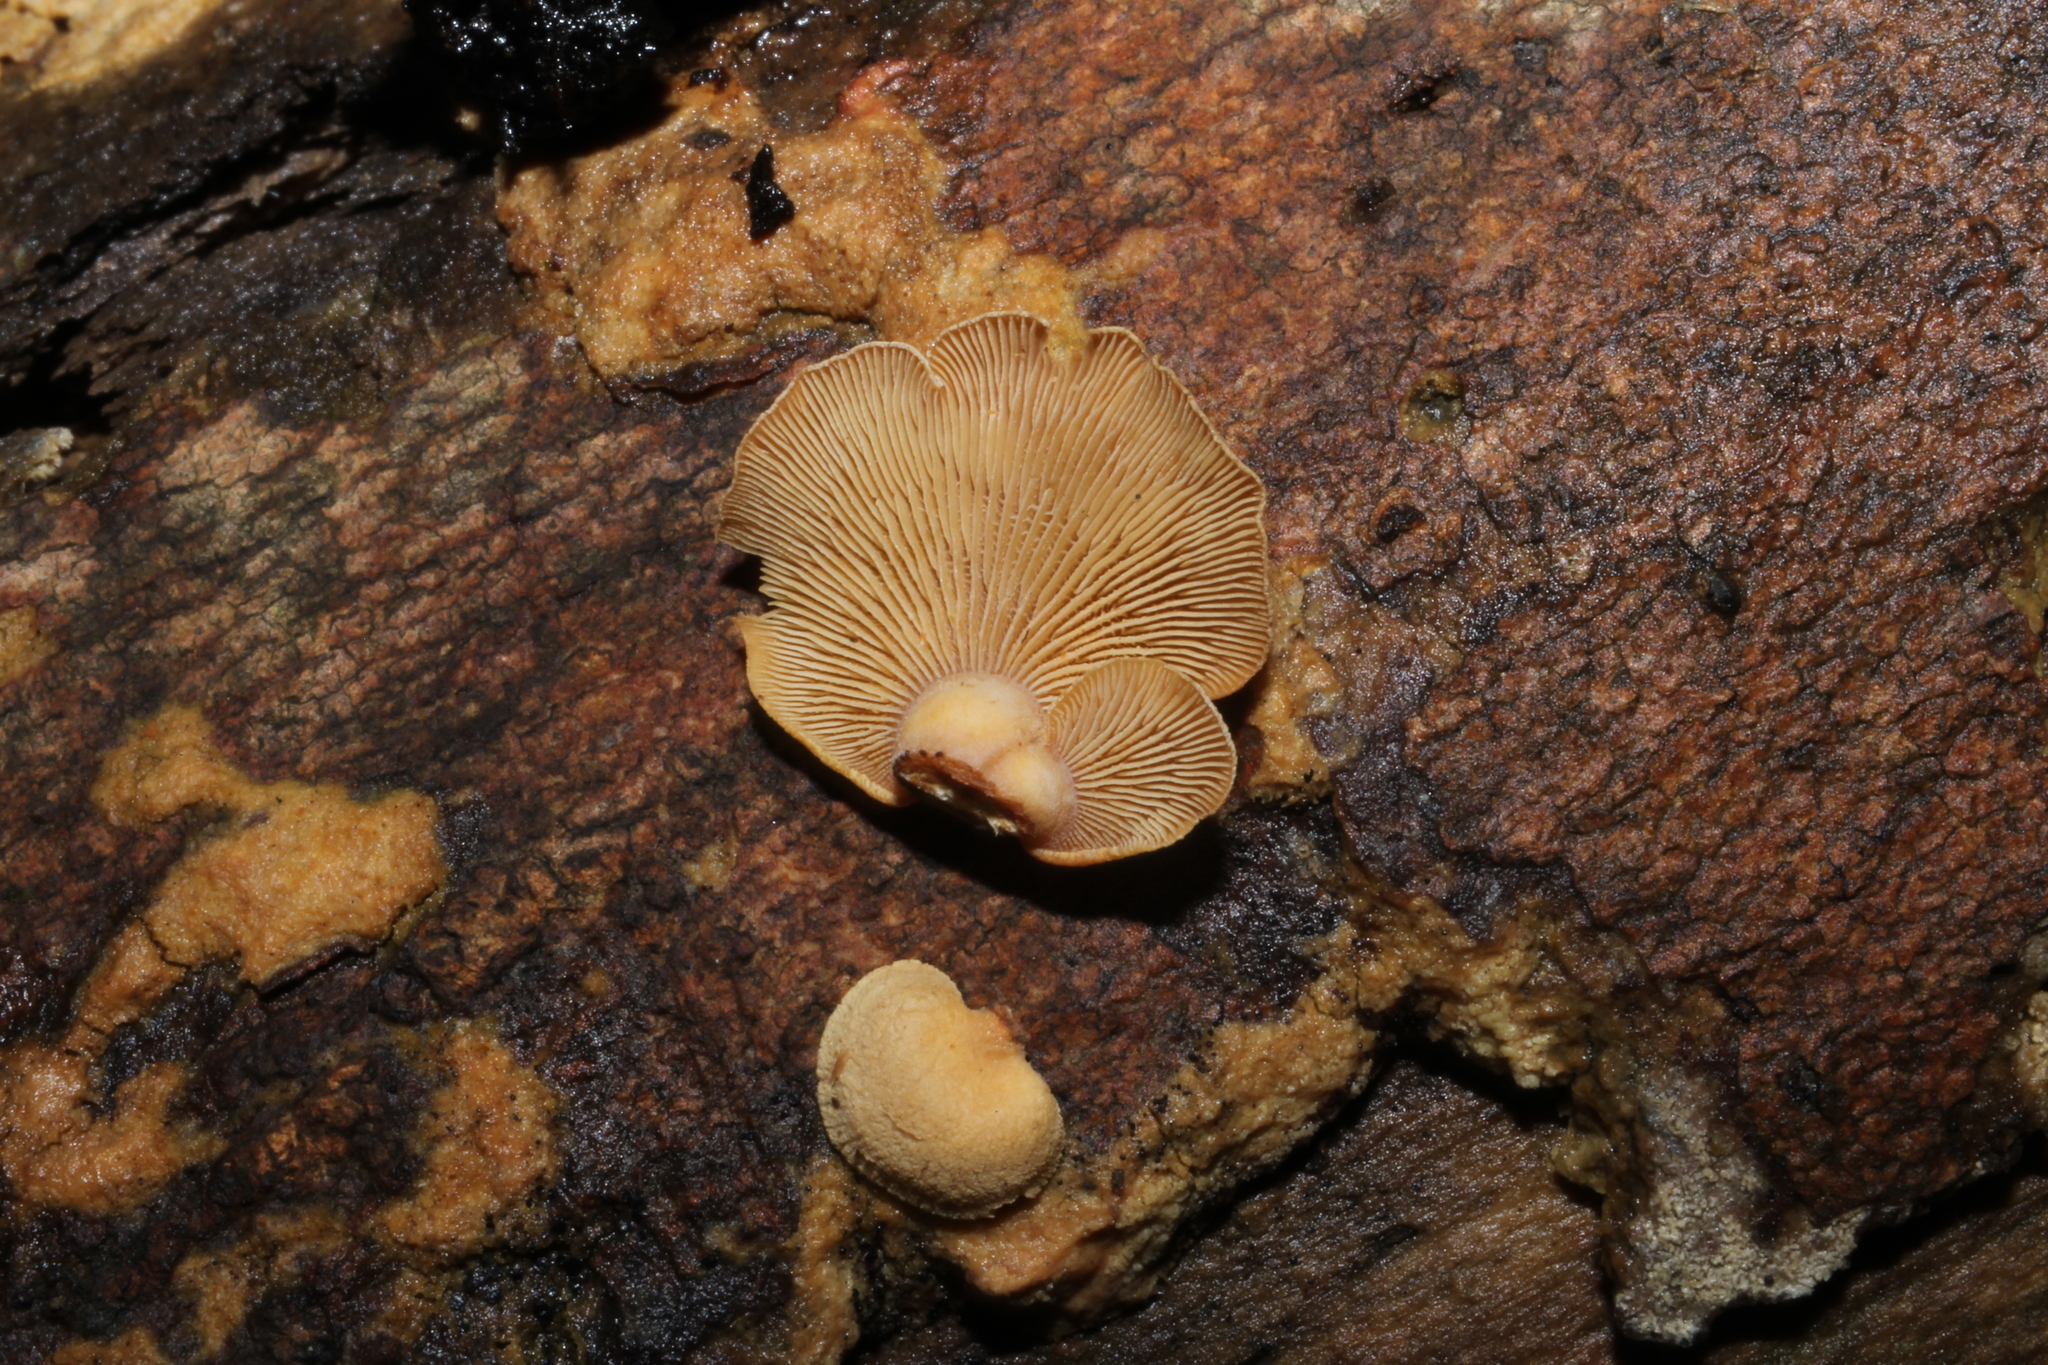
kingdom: Fungi
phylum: Basidiomycota
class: Agaricomycetes
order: Agaricales
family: Mycenaceae
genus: Panellus
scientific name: Panellus stipticus
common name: Bitter oysterling
